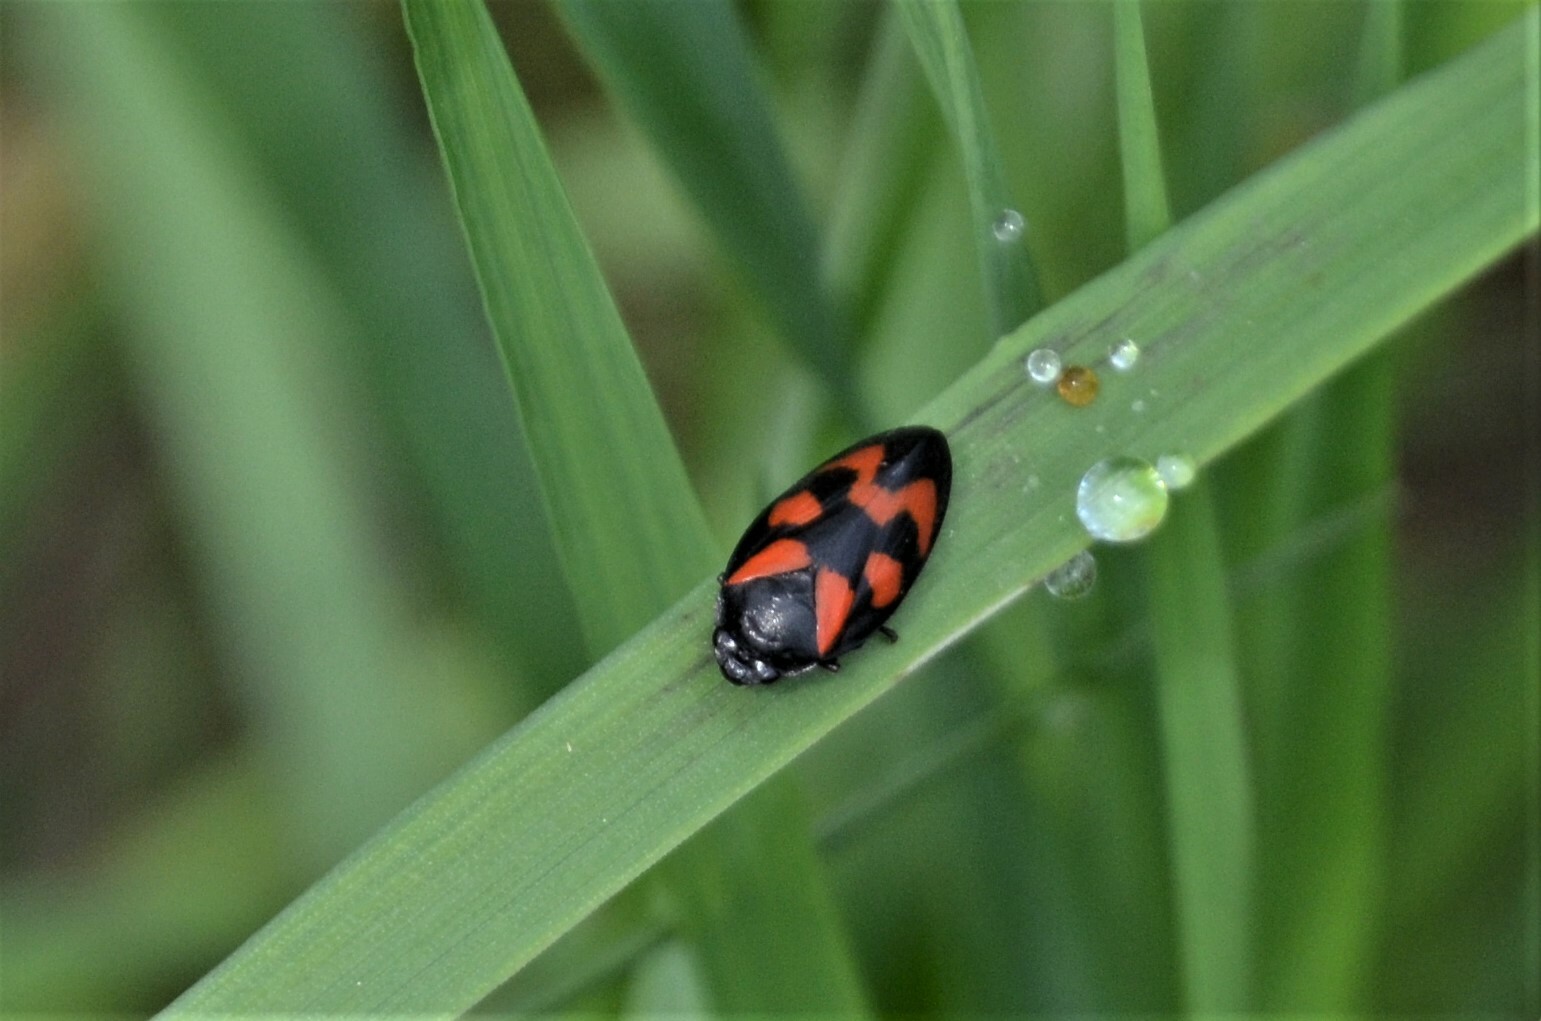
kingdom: Animalia
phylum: Arthropoda
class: Insecta
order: Hemiptera
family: Cercopidae
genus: Cercopis
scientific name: Cercopis vulnerata
